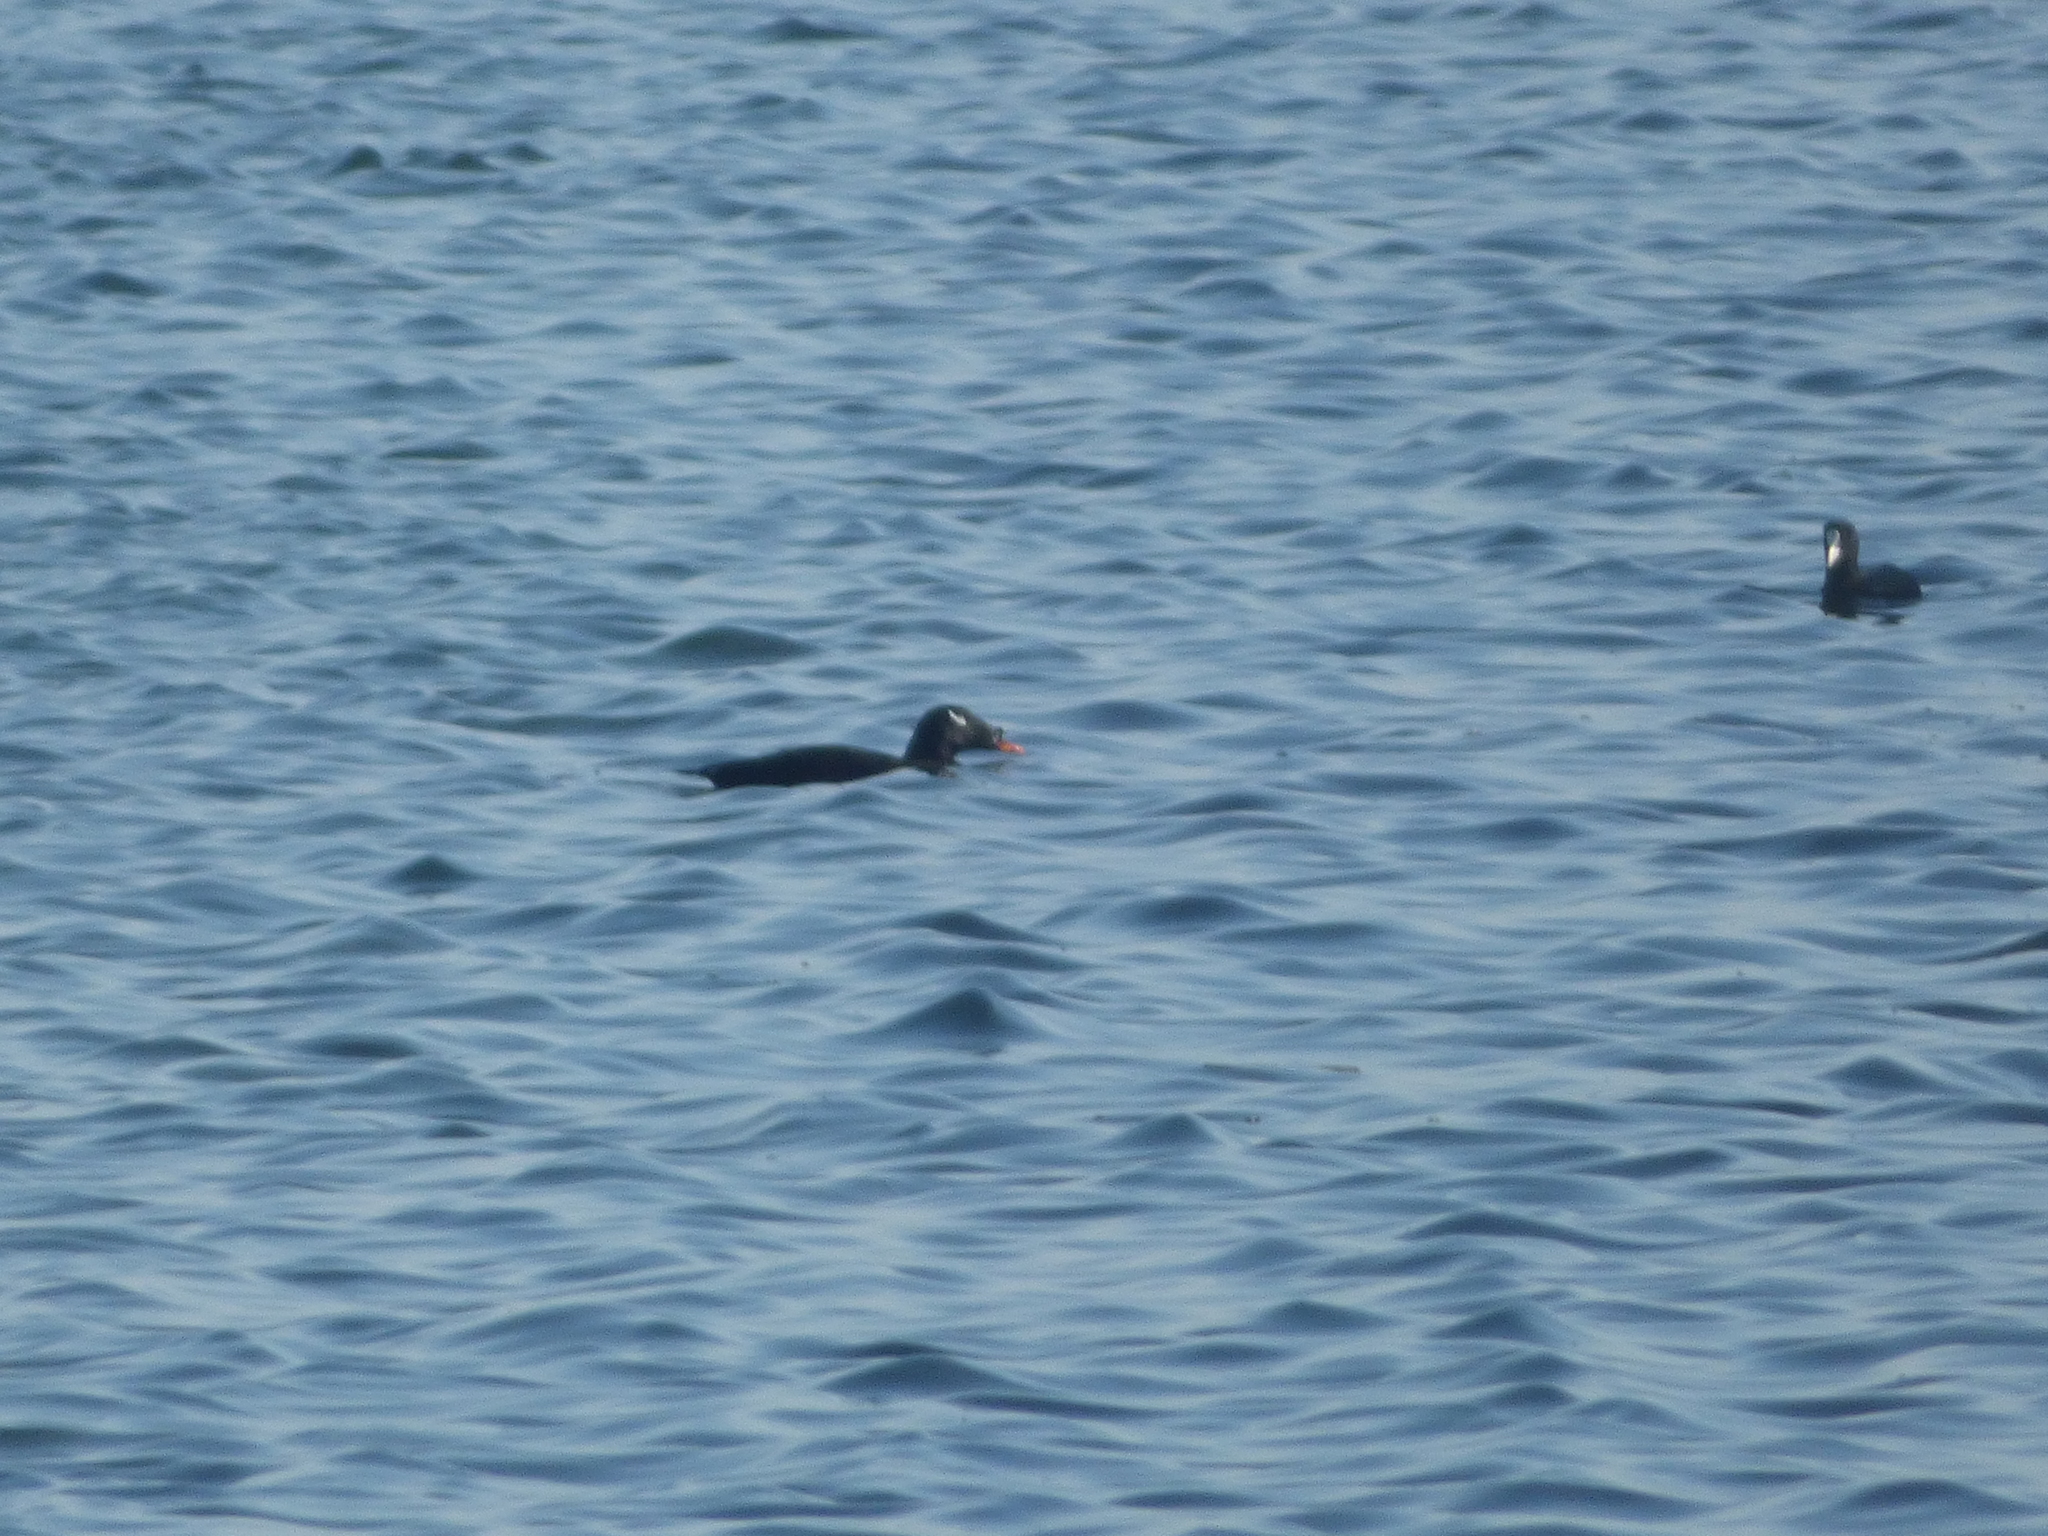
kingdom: Animalia
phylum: Chordata
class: Aves
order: Anseriformes
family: Anatidae
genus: Melanitta
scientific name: Melanitta stejnegeri
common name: Stejneger's scoter
